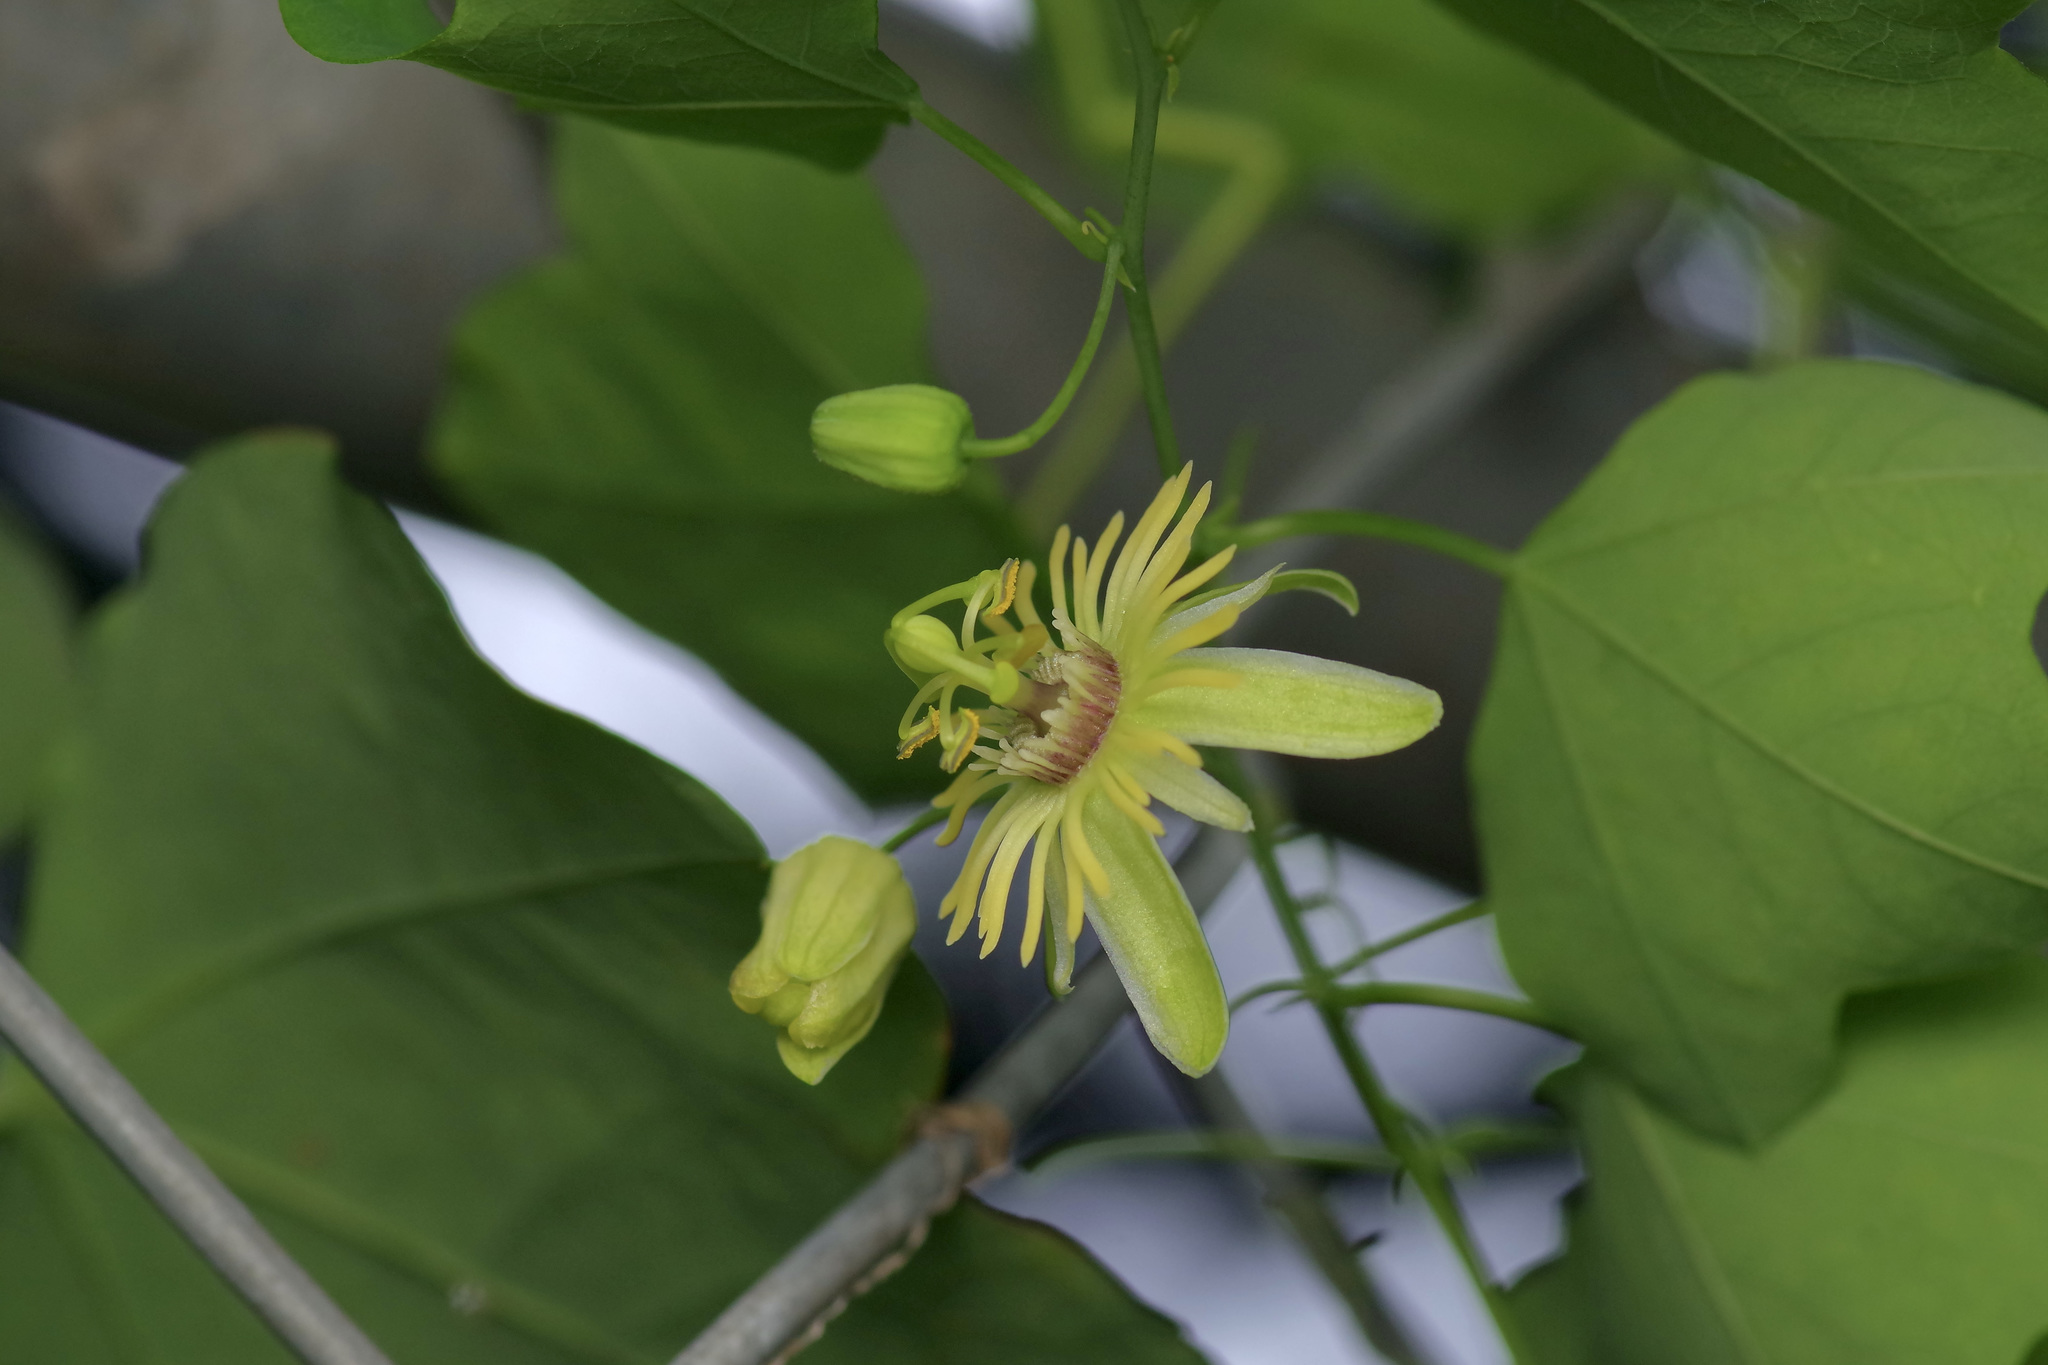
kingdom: Plantae
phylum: Tracheophyta
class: Magnoliopsida
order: Malpighiales
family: Passifloraceae
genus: Passiflora
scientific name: Passiflora lutea
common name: Yellow passionflower
